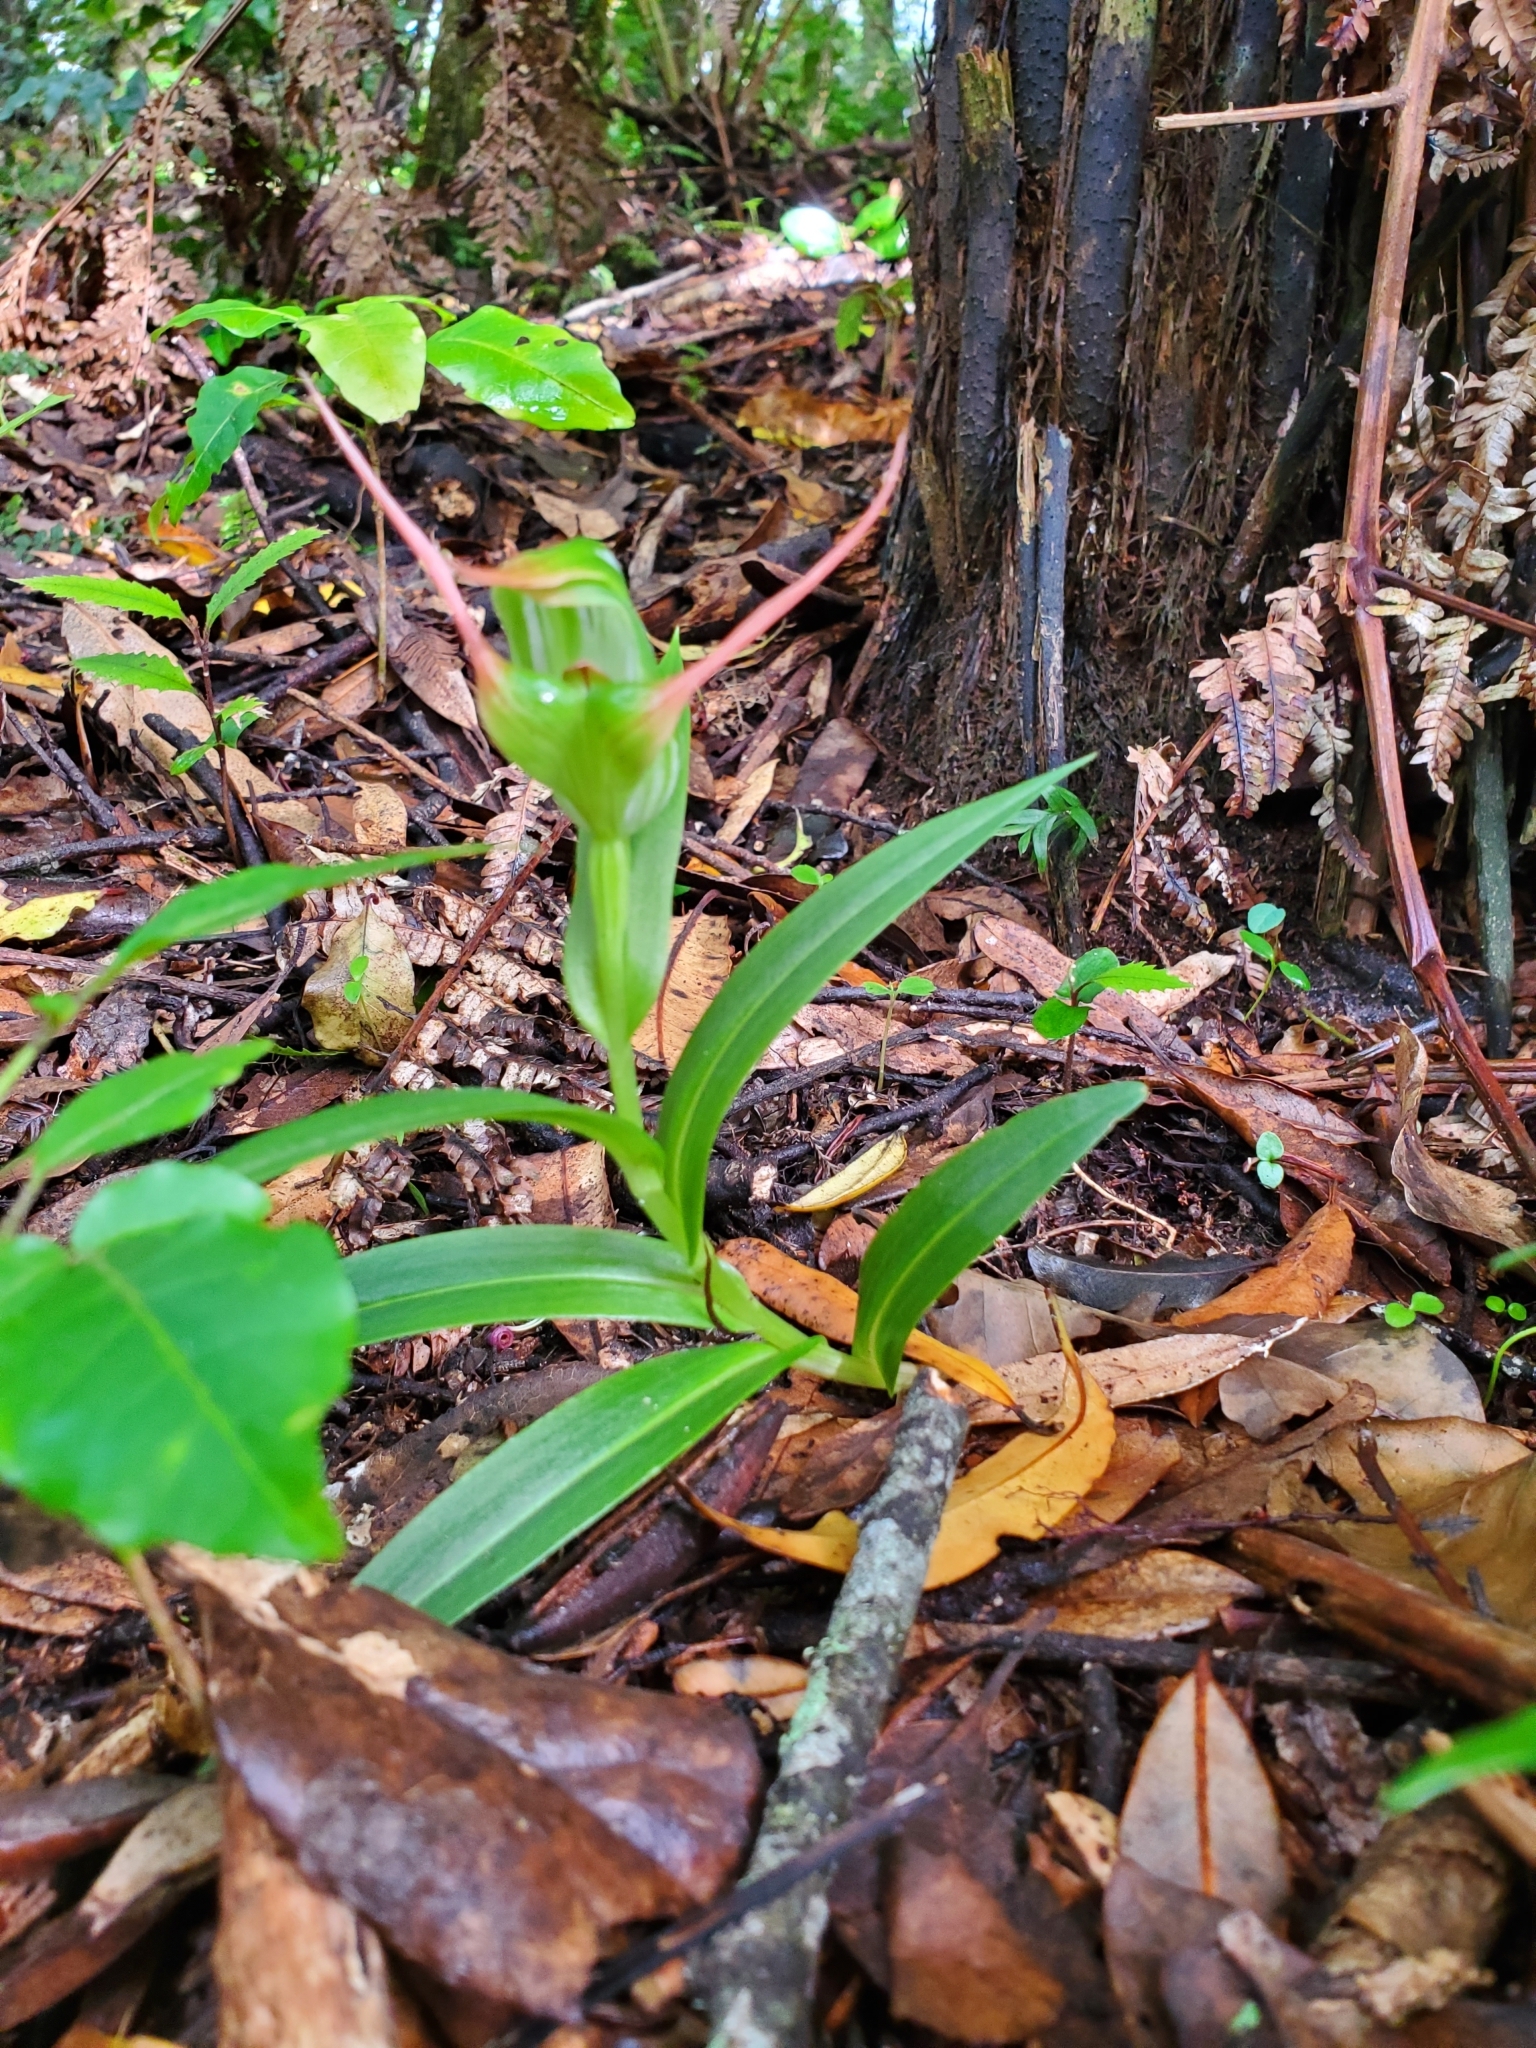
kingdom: Plantae
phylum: Tracheophyta
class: Liliopsida
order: Asparagales
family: Orchidaceae
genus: Pterostylis
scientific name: Pterostylis banksii
